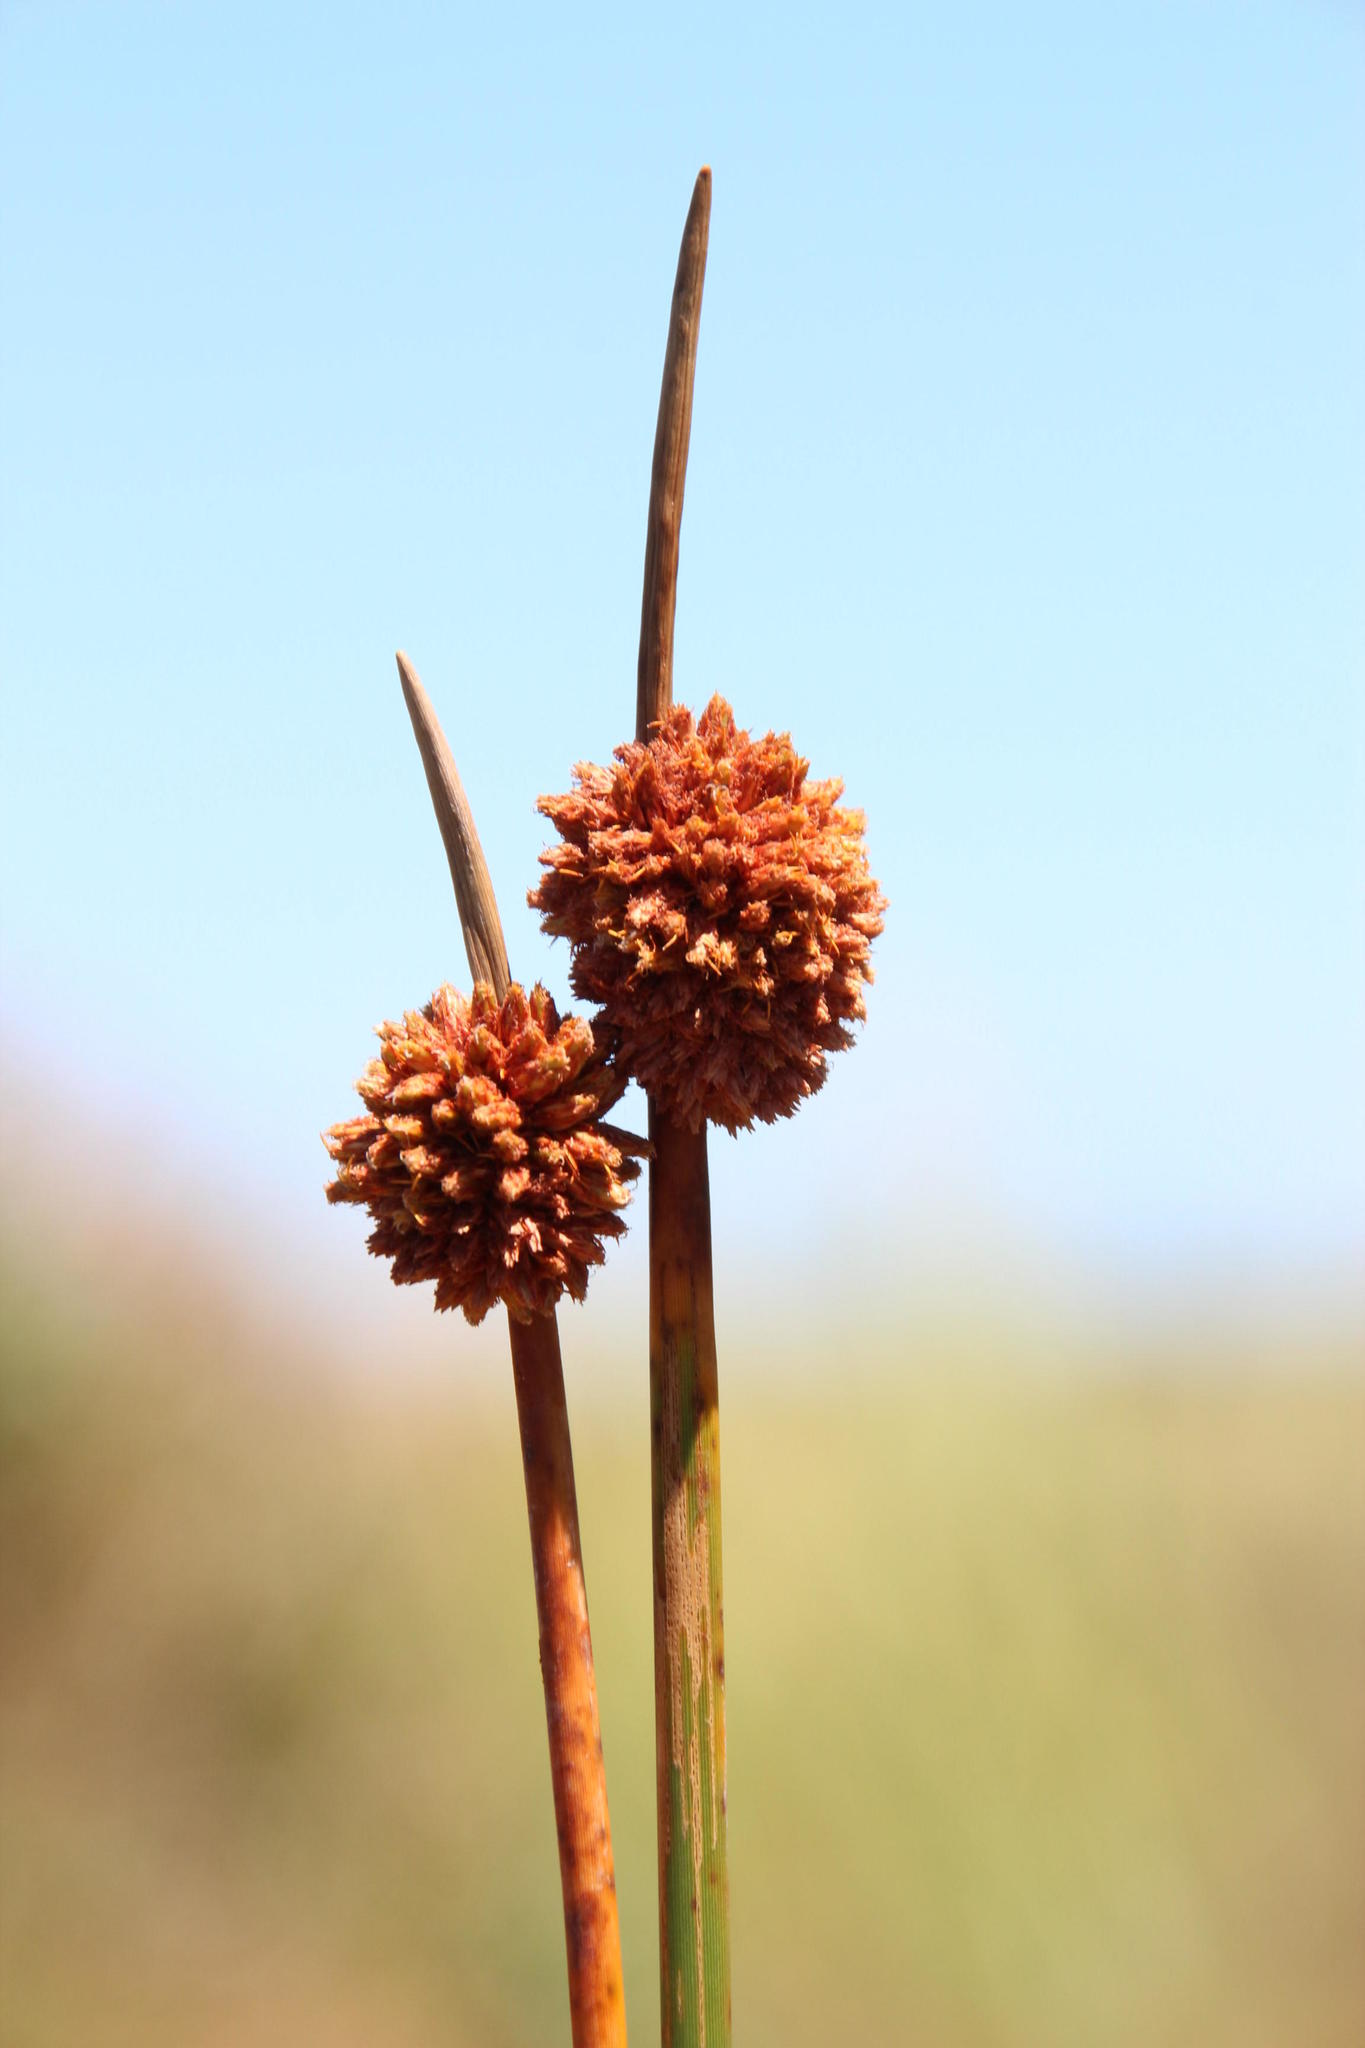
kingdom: Plantae
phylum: Tracheophyta
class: Liliopsida
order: Poales
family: Cyperaceae
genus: Ficinia
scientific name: Ficinia nodosa
